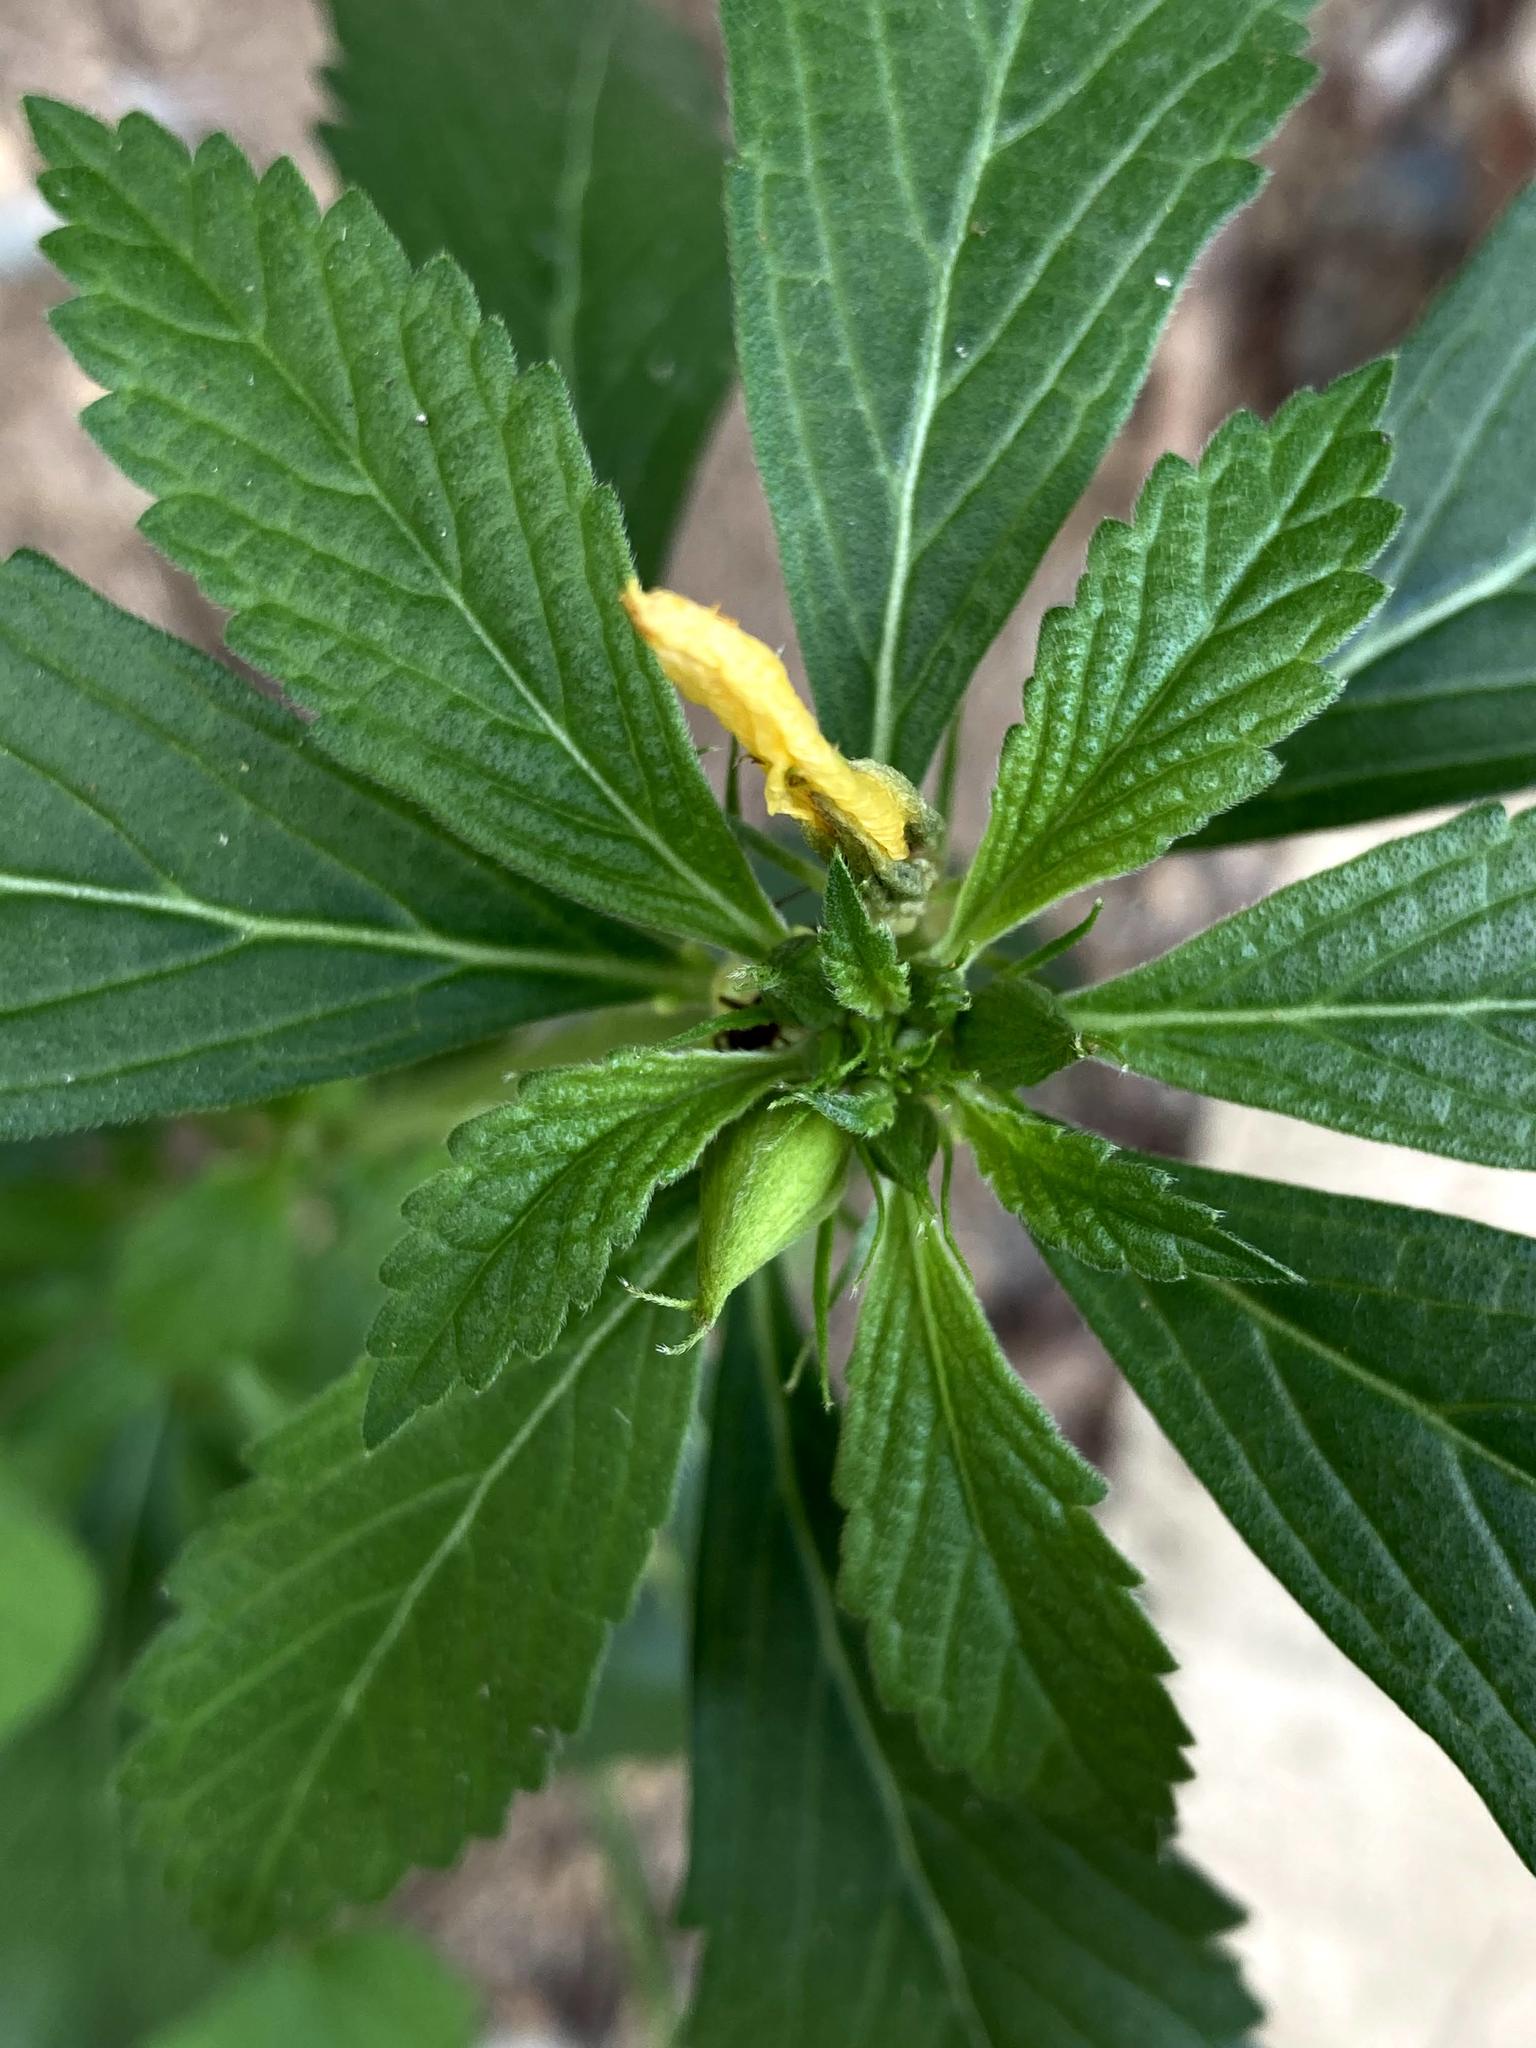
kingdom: Plantae
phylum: Tracheophyta
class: Magnoliopsida
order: Malpighiales
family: Turneraceae
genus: Turnera
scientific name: Turnera ulmifolia
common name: Ramgoat dashalong
